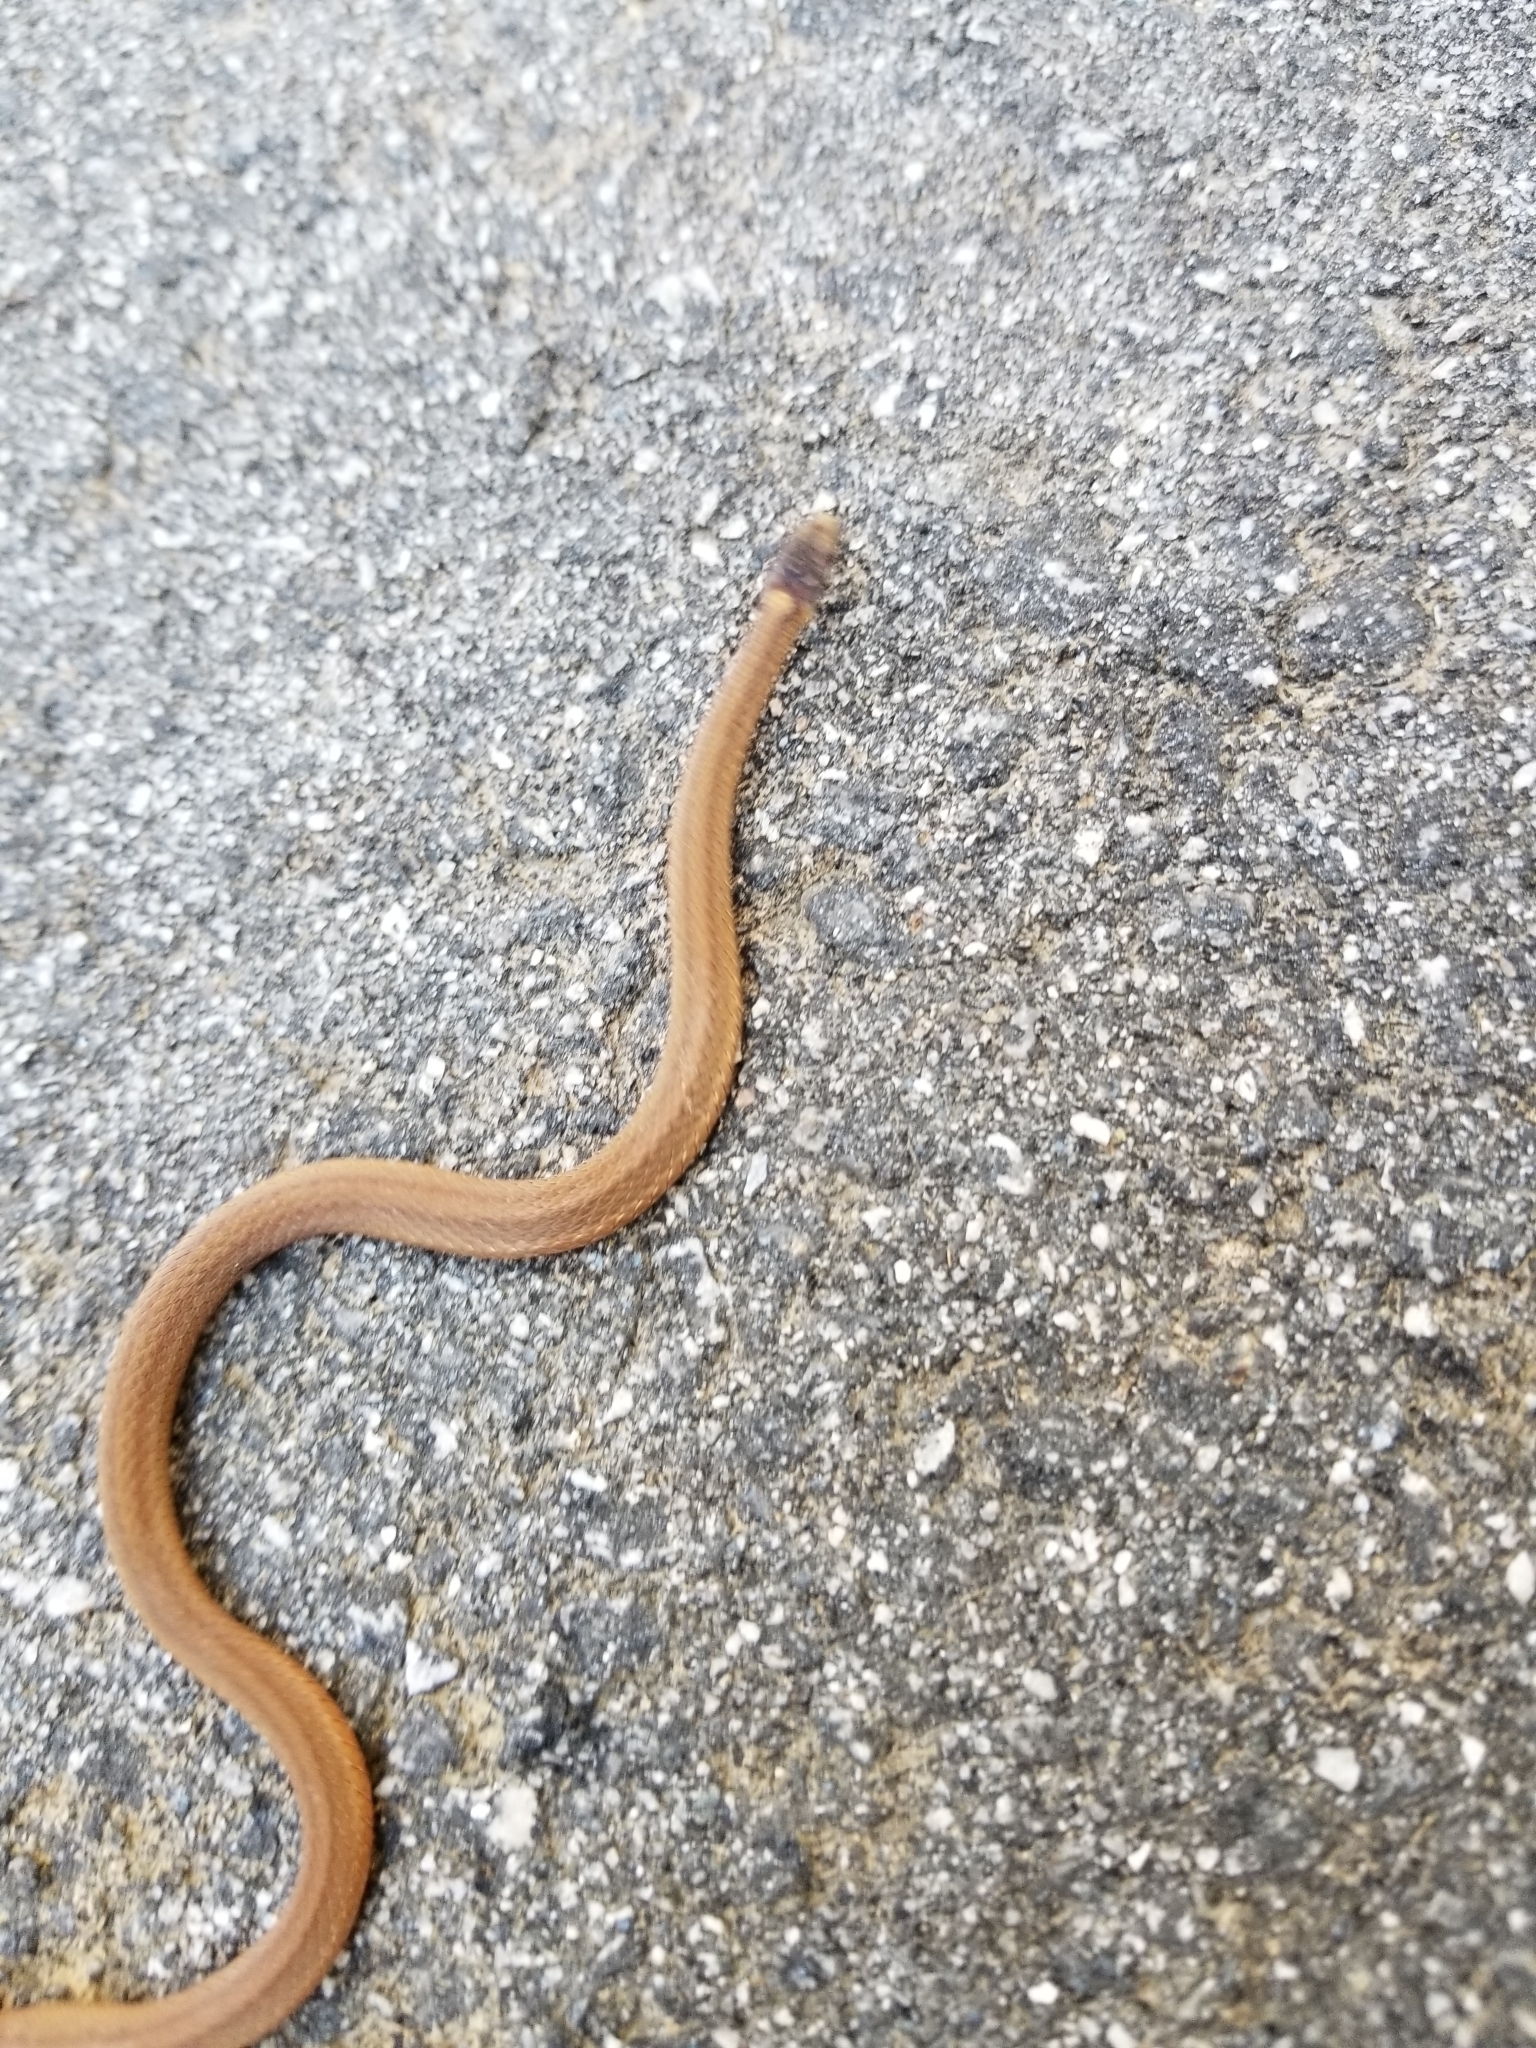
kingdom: Animalia
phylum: Chordata
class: Squamata
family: Colubridae
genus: Storeria
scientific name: Storeria occipitomaculata
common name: Redbelly snake
